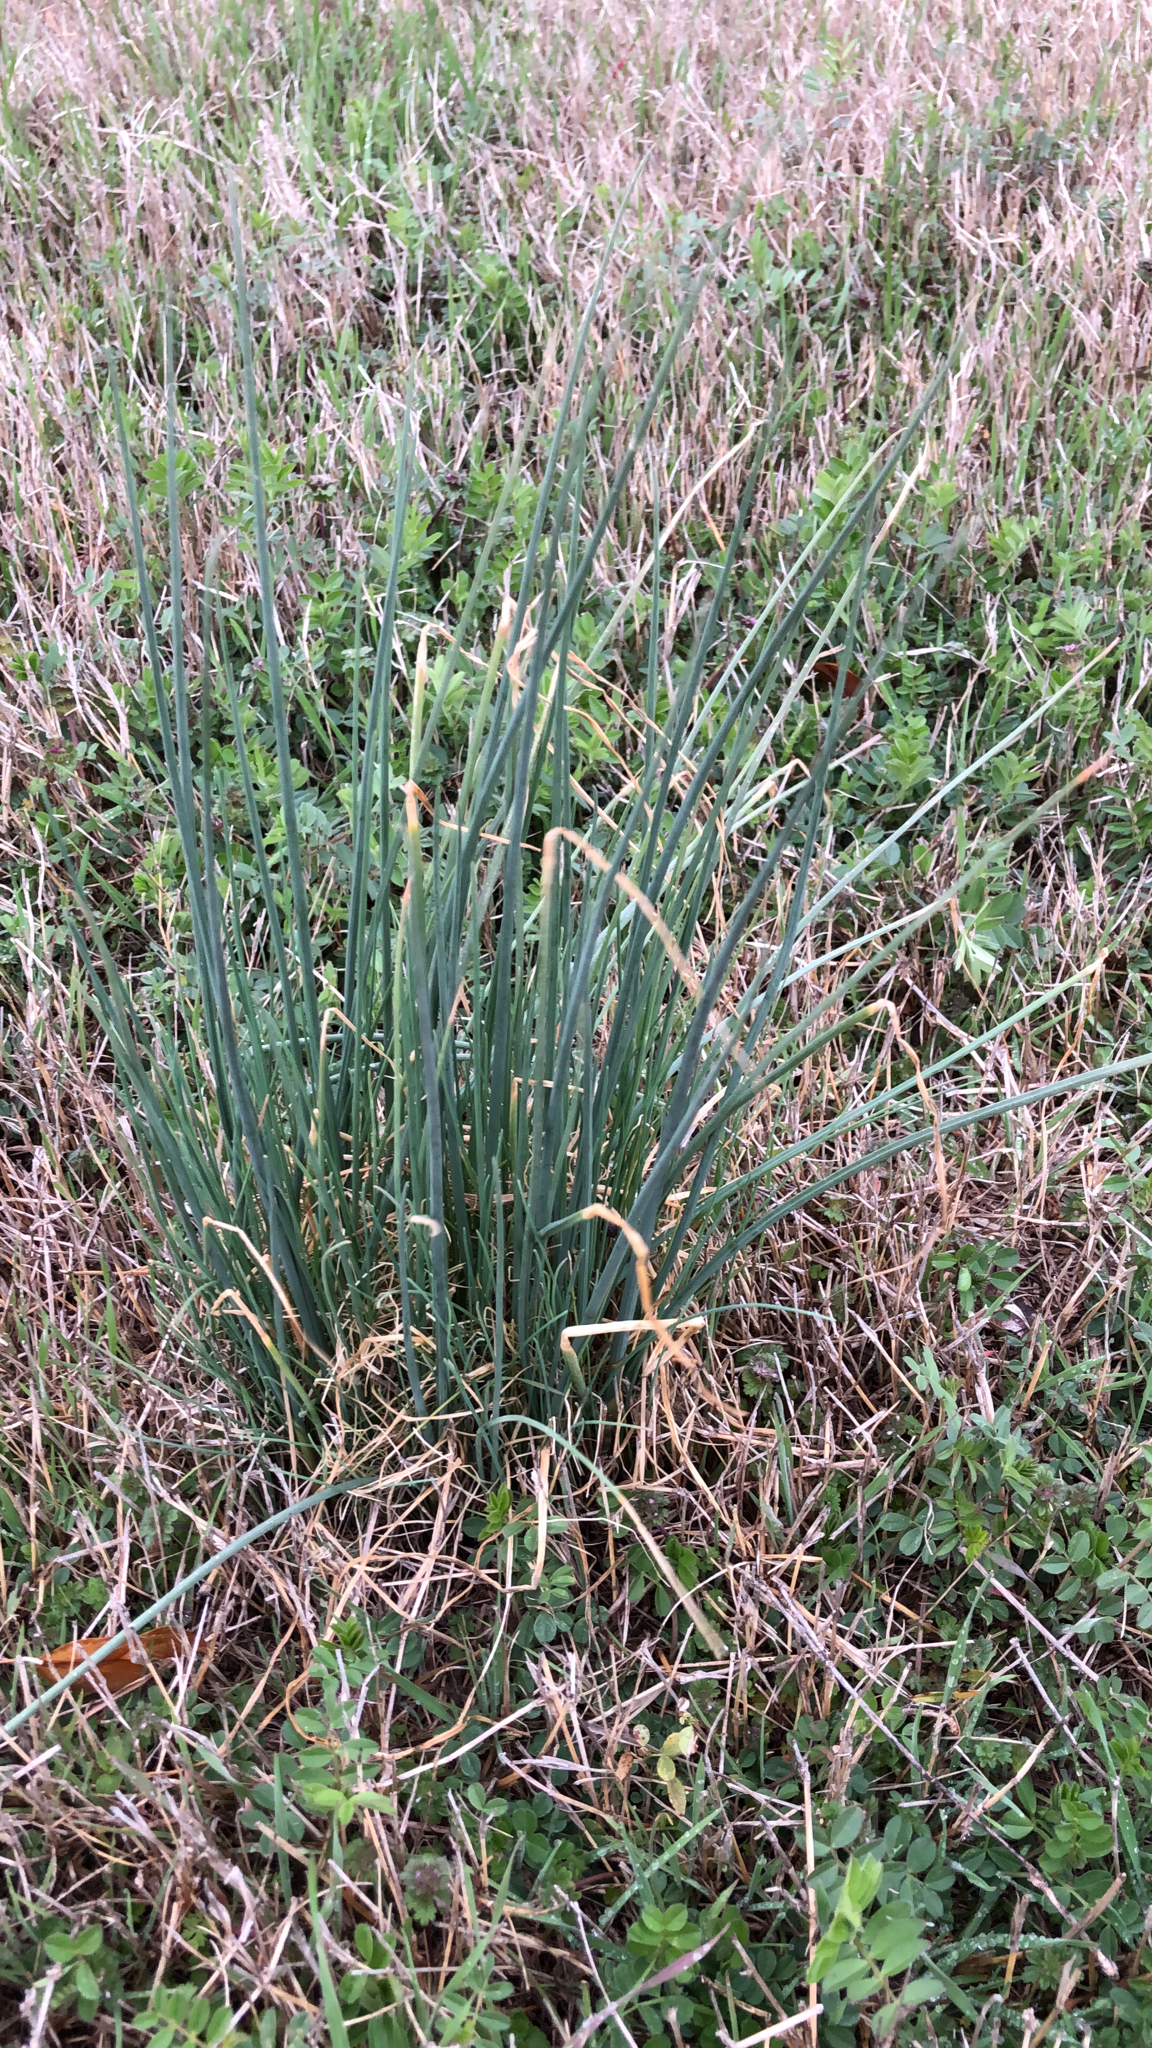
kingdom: Plantae
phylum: Tracheophyta
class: Liliopsida
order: Asparagales
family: Amaryllidaceae
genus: Allium
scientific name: Allium vineale
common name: Crow garlic
